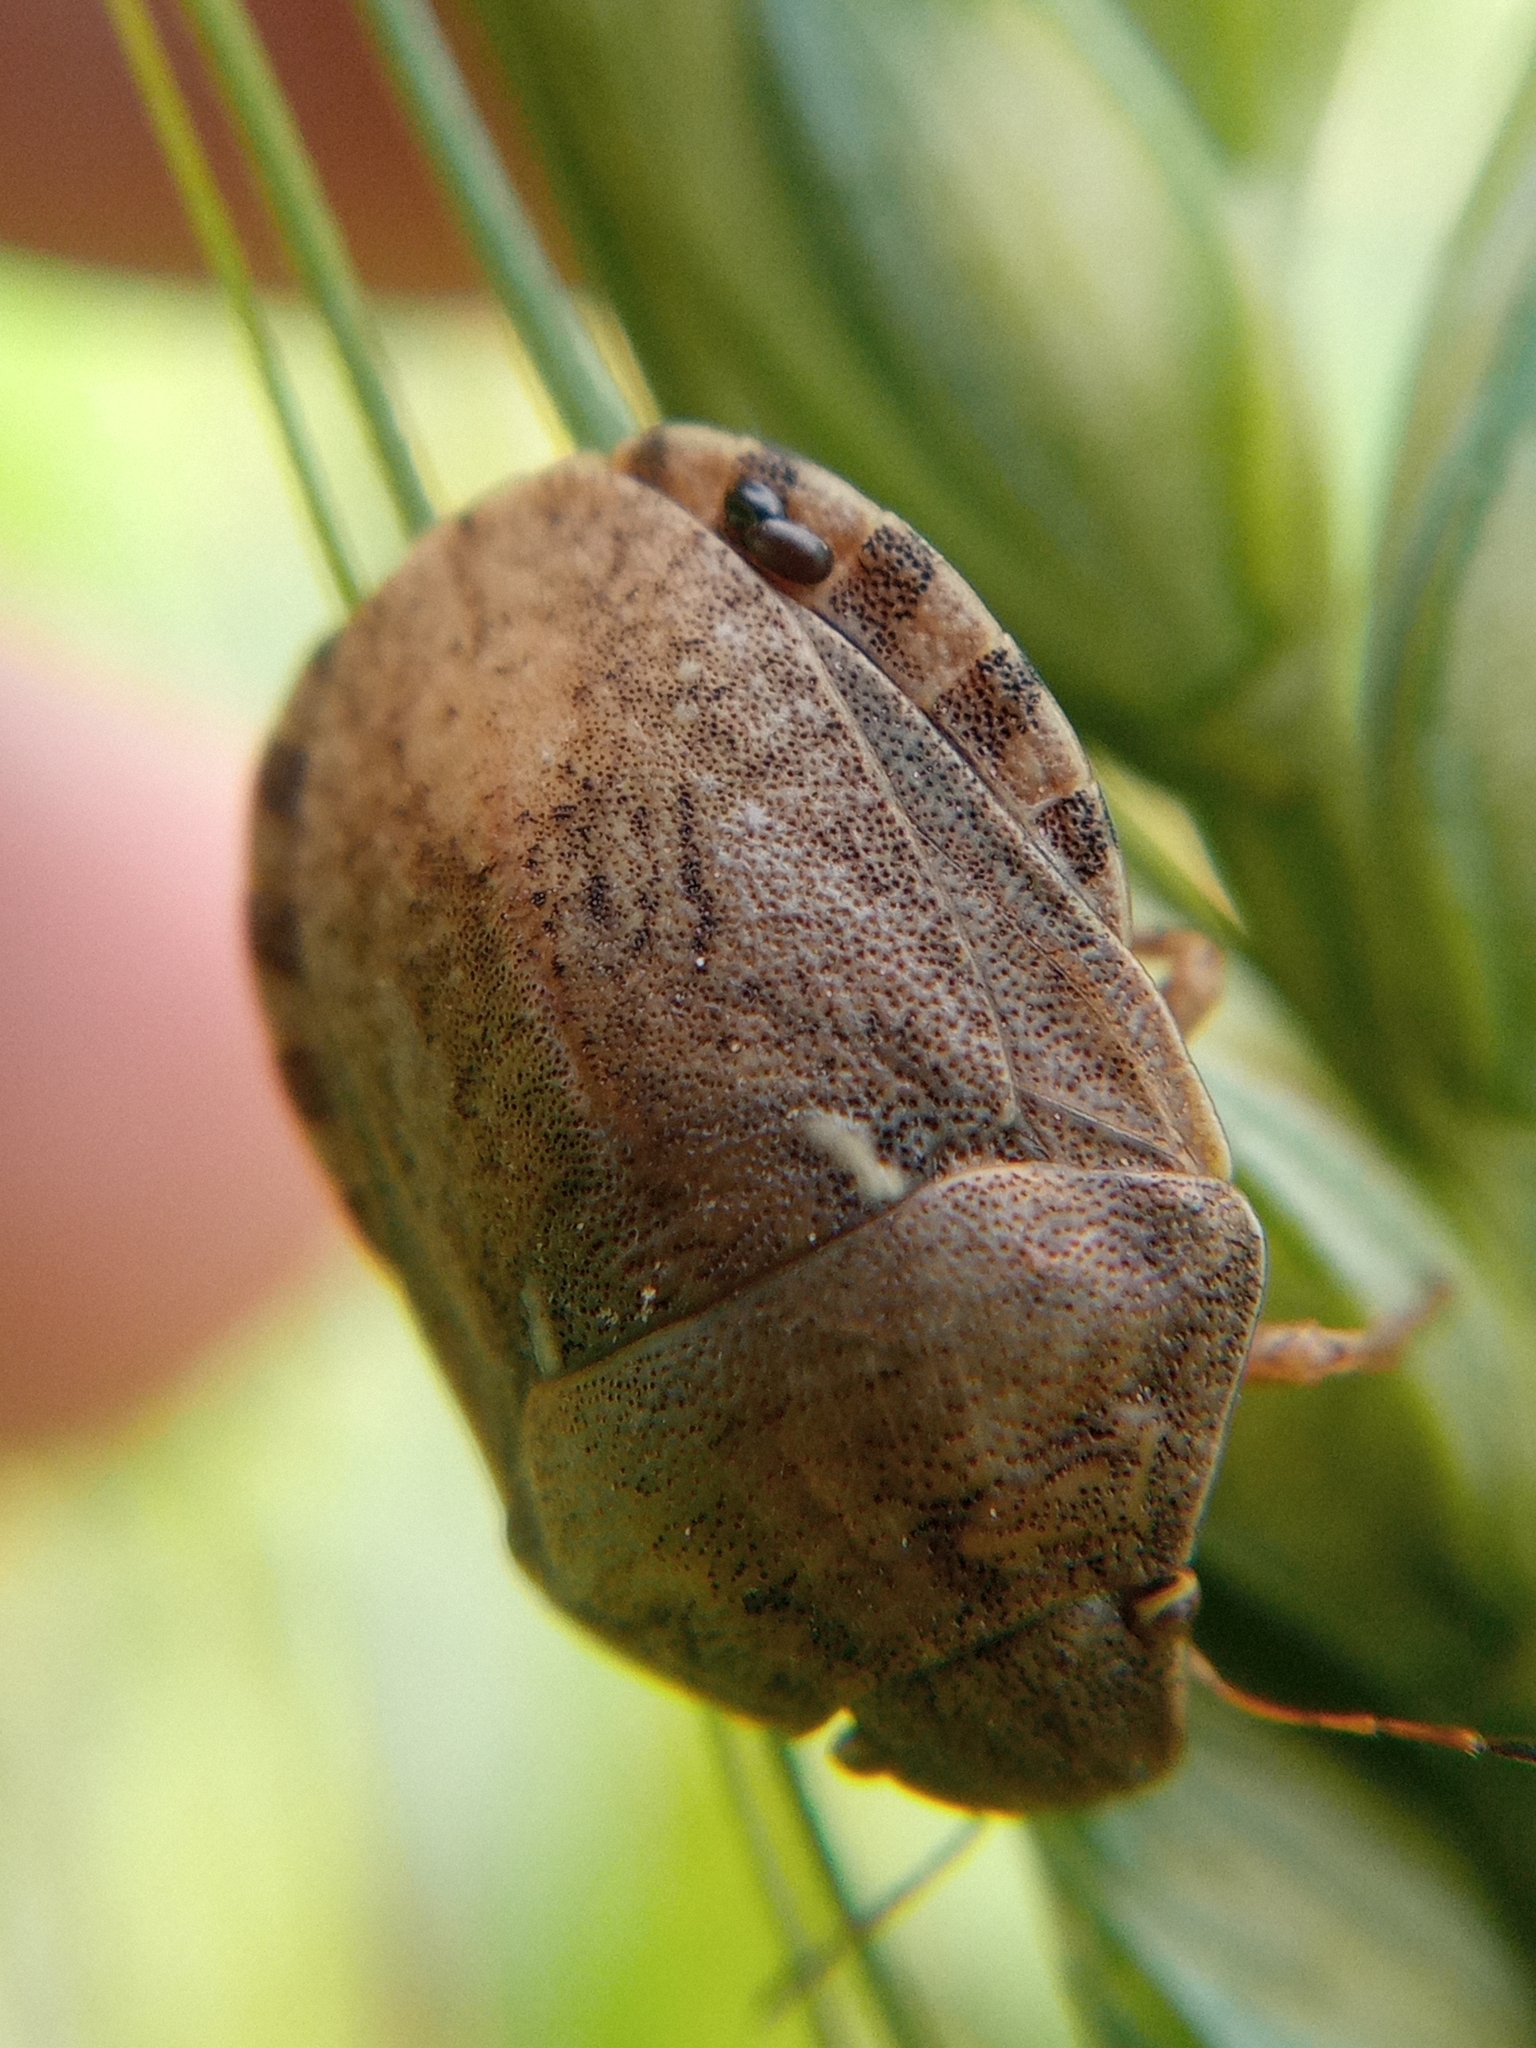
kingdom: Animalia
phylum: Arthropoda
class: Insecta
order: Hemiptera
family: Scutelleridae
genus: Eurygaster
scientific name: Eurygaster maura
